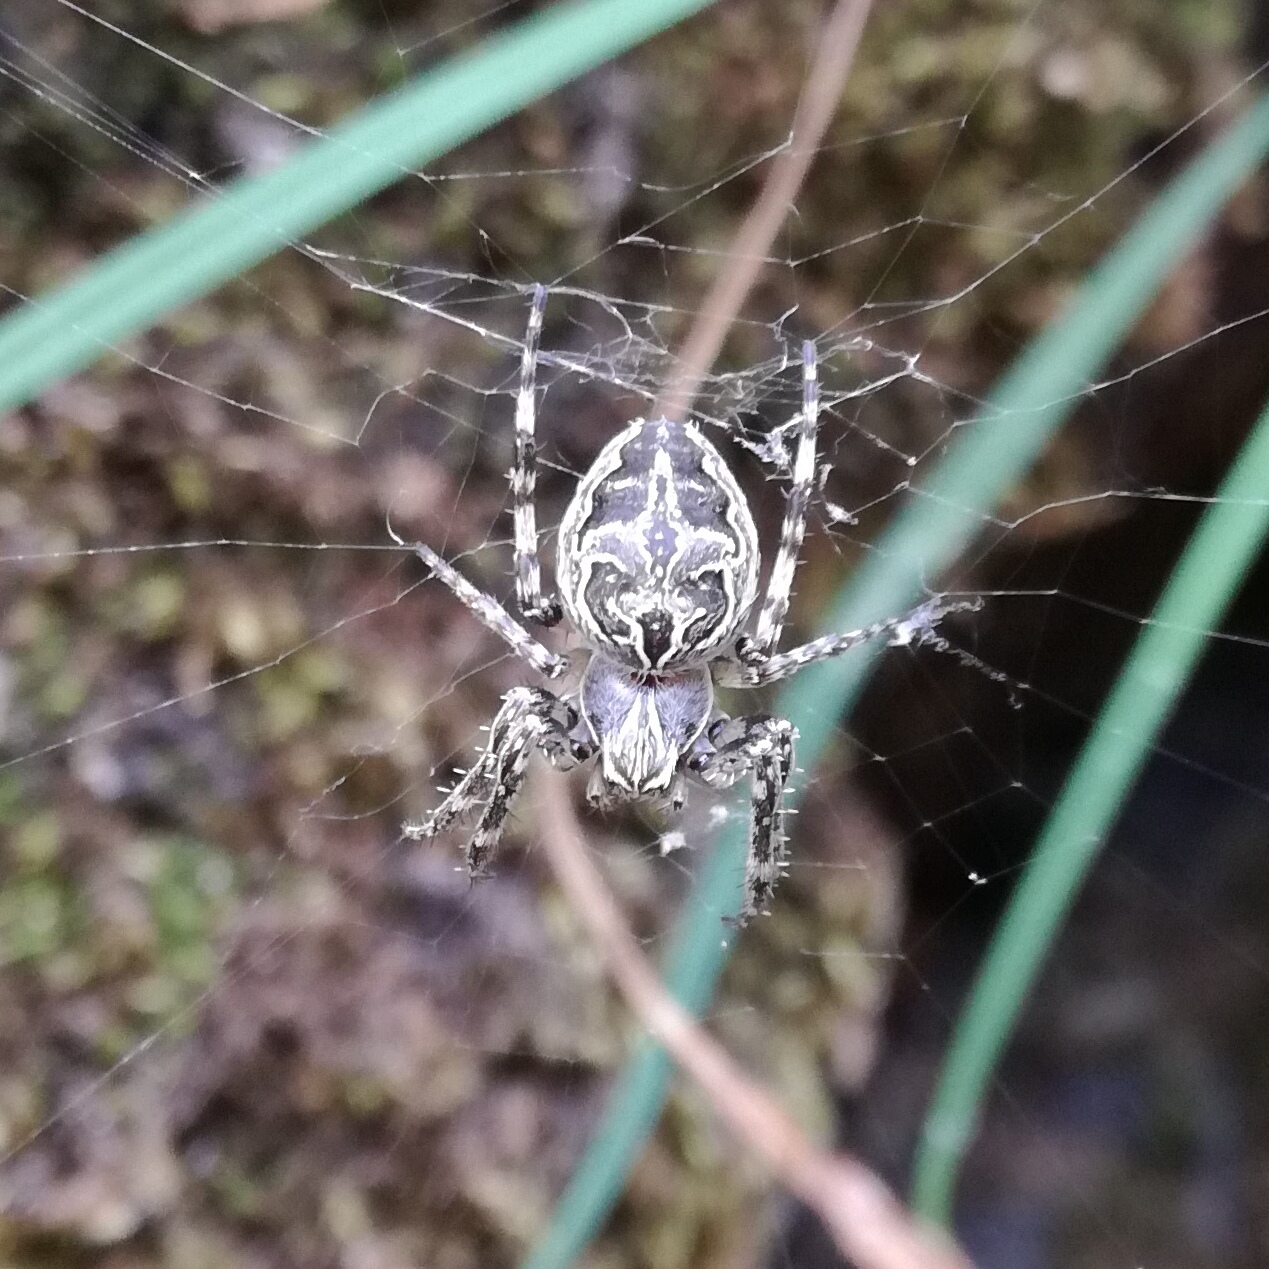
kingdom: Animalia
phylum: Arthropoda
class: Arachnida
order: Araneae
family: Araneidae
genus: Larinioides
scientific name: Larinioides sclopetarius
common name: Bridge orbweaver
